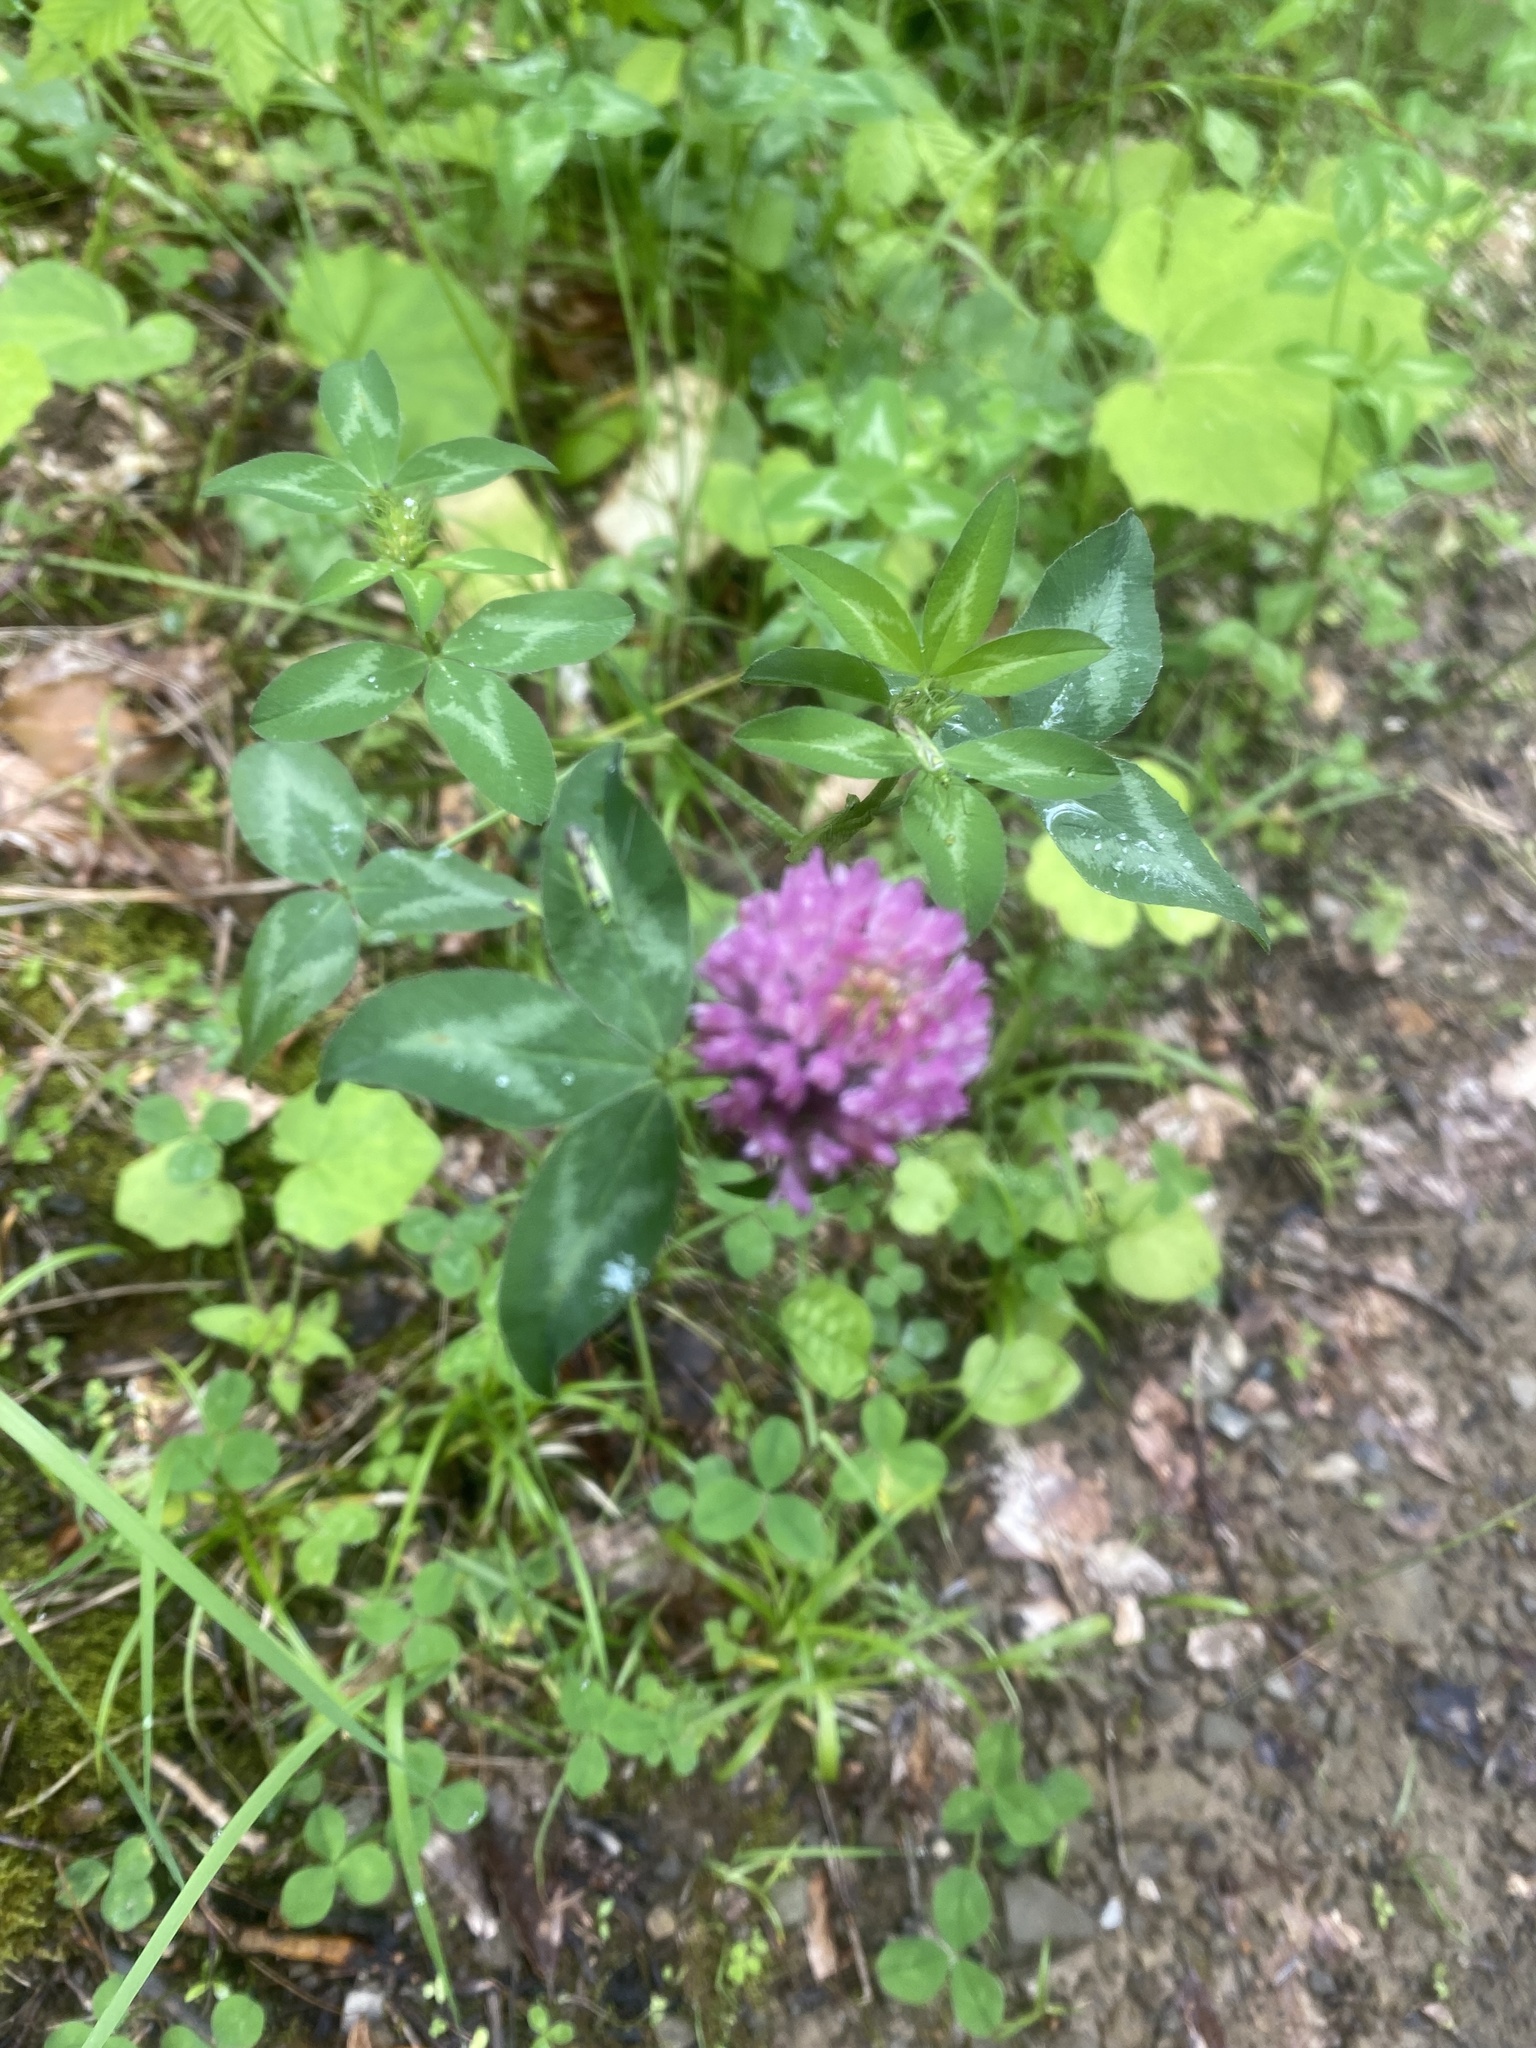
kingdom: Plantae
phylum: Tracheophyta
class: Magnoliopsida
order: Fabales
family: Fabaceae
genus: Trifolium
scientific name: Trifolium pratense
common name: Red clover
